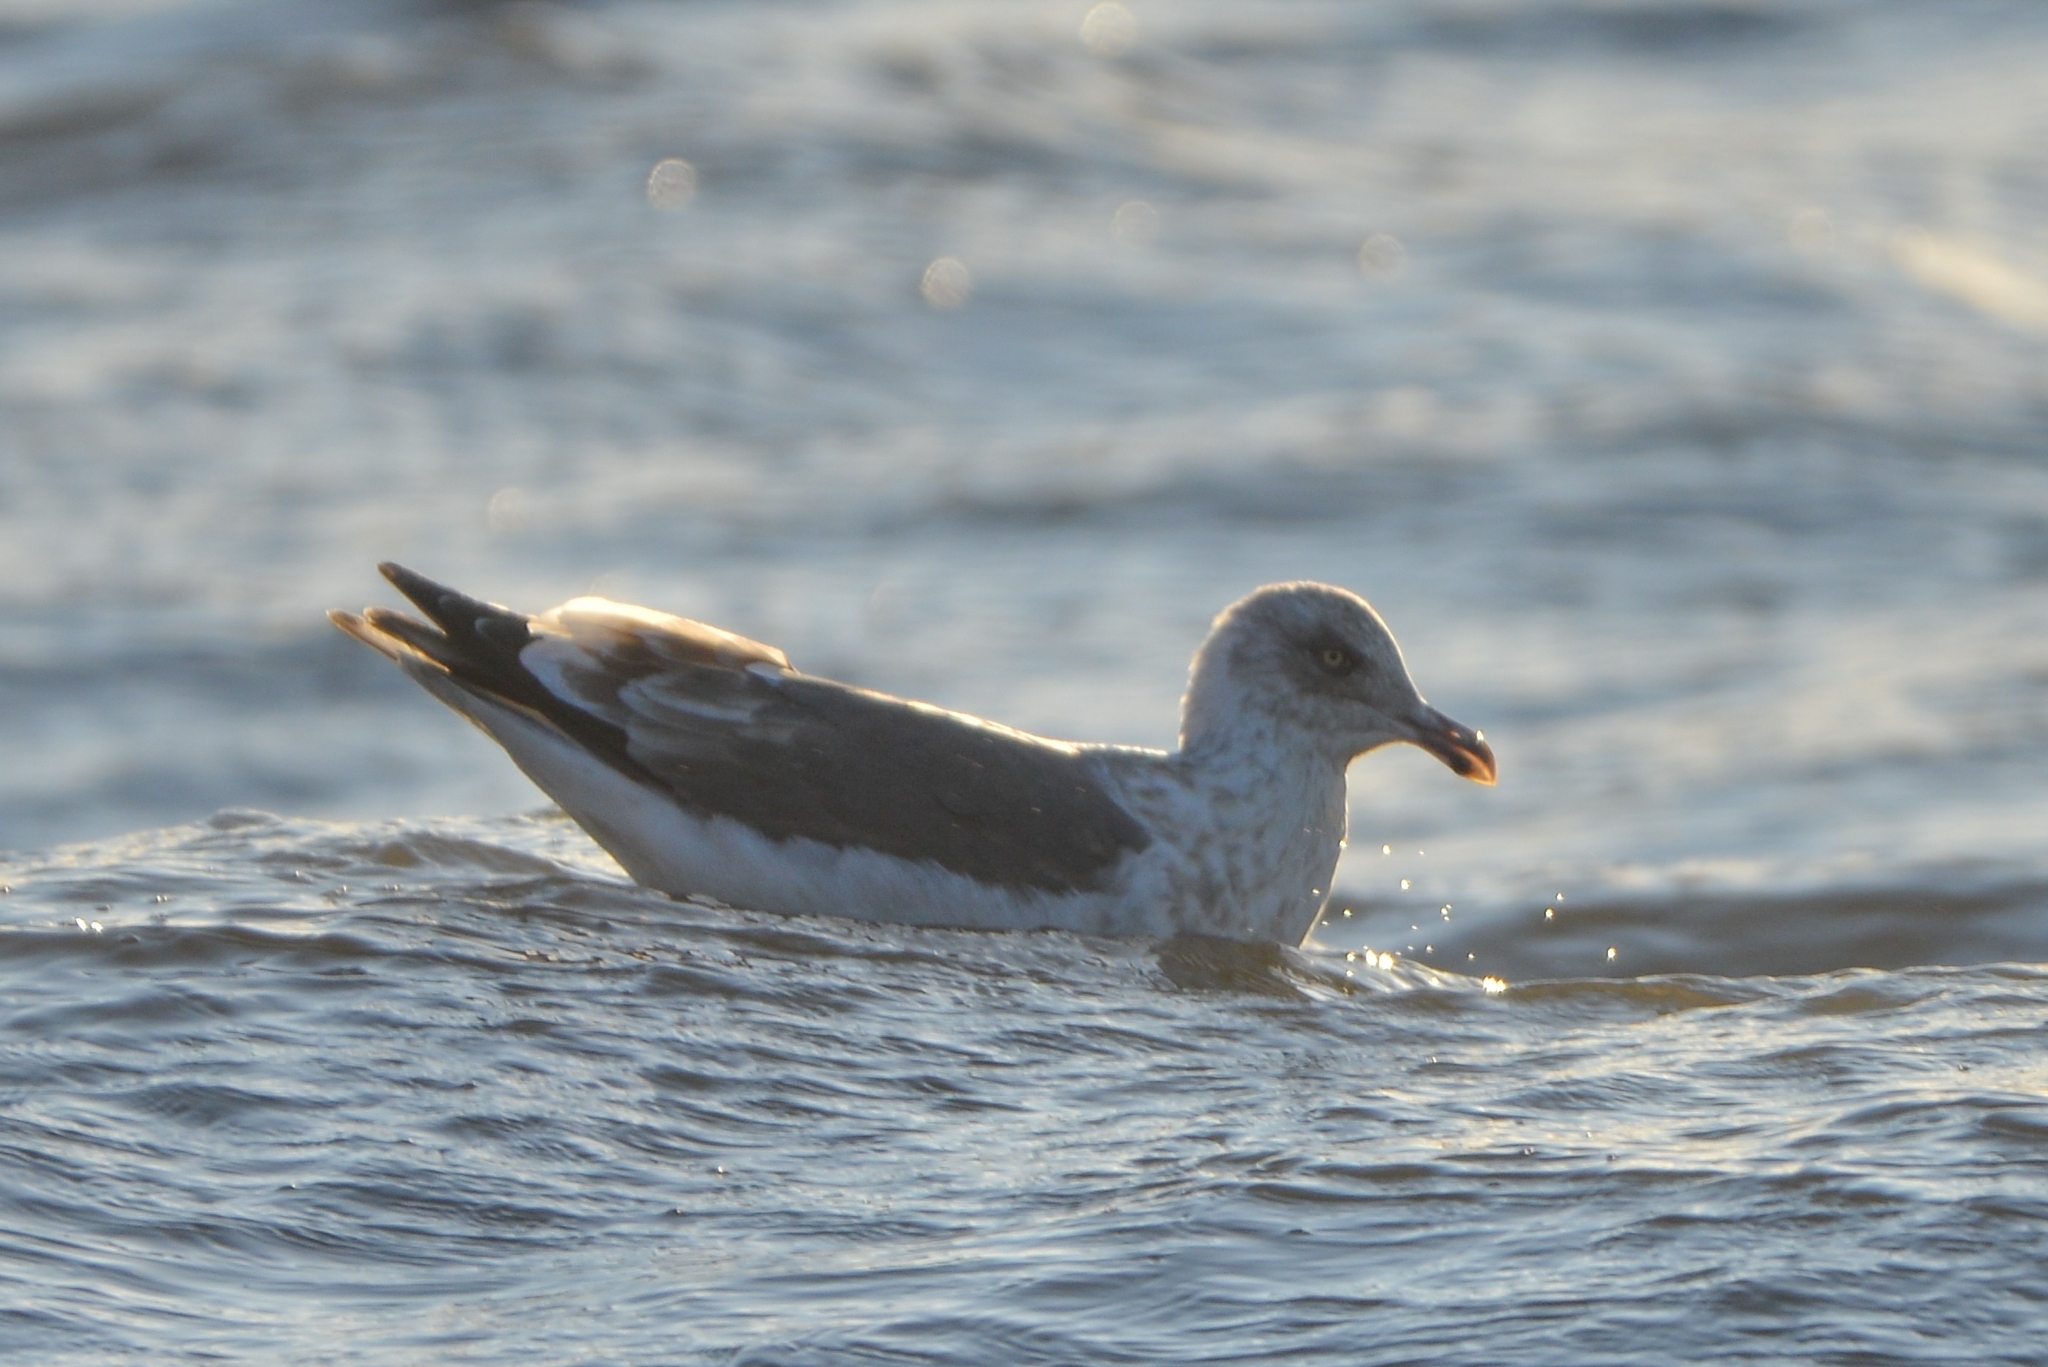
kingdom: Animalia
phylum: Chordata
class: Aves
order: Charadriiformes
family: Laridae
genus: Larus
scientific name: Larus schistisagus
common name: Slaty-backed gull
